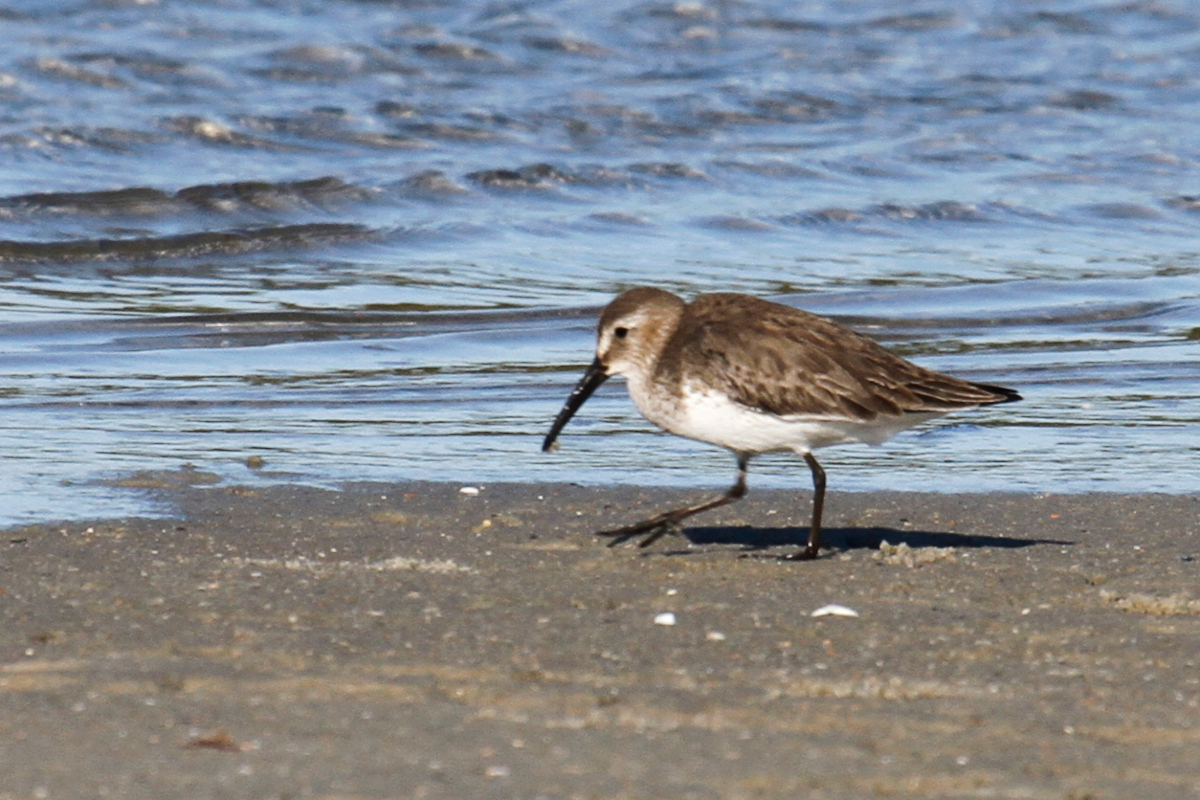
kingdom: Animalia
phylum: Chordata
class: Aves
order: Charadriiformes
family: Scolopacidae
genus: Calidris
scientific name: Calidris alpina
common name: Dunlin
